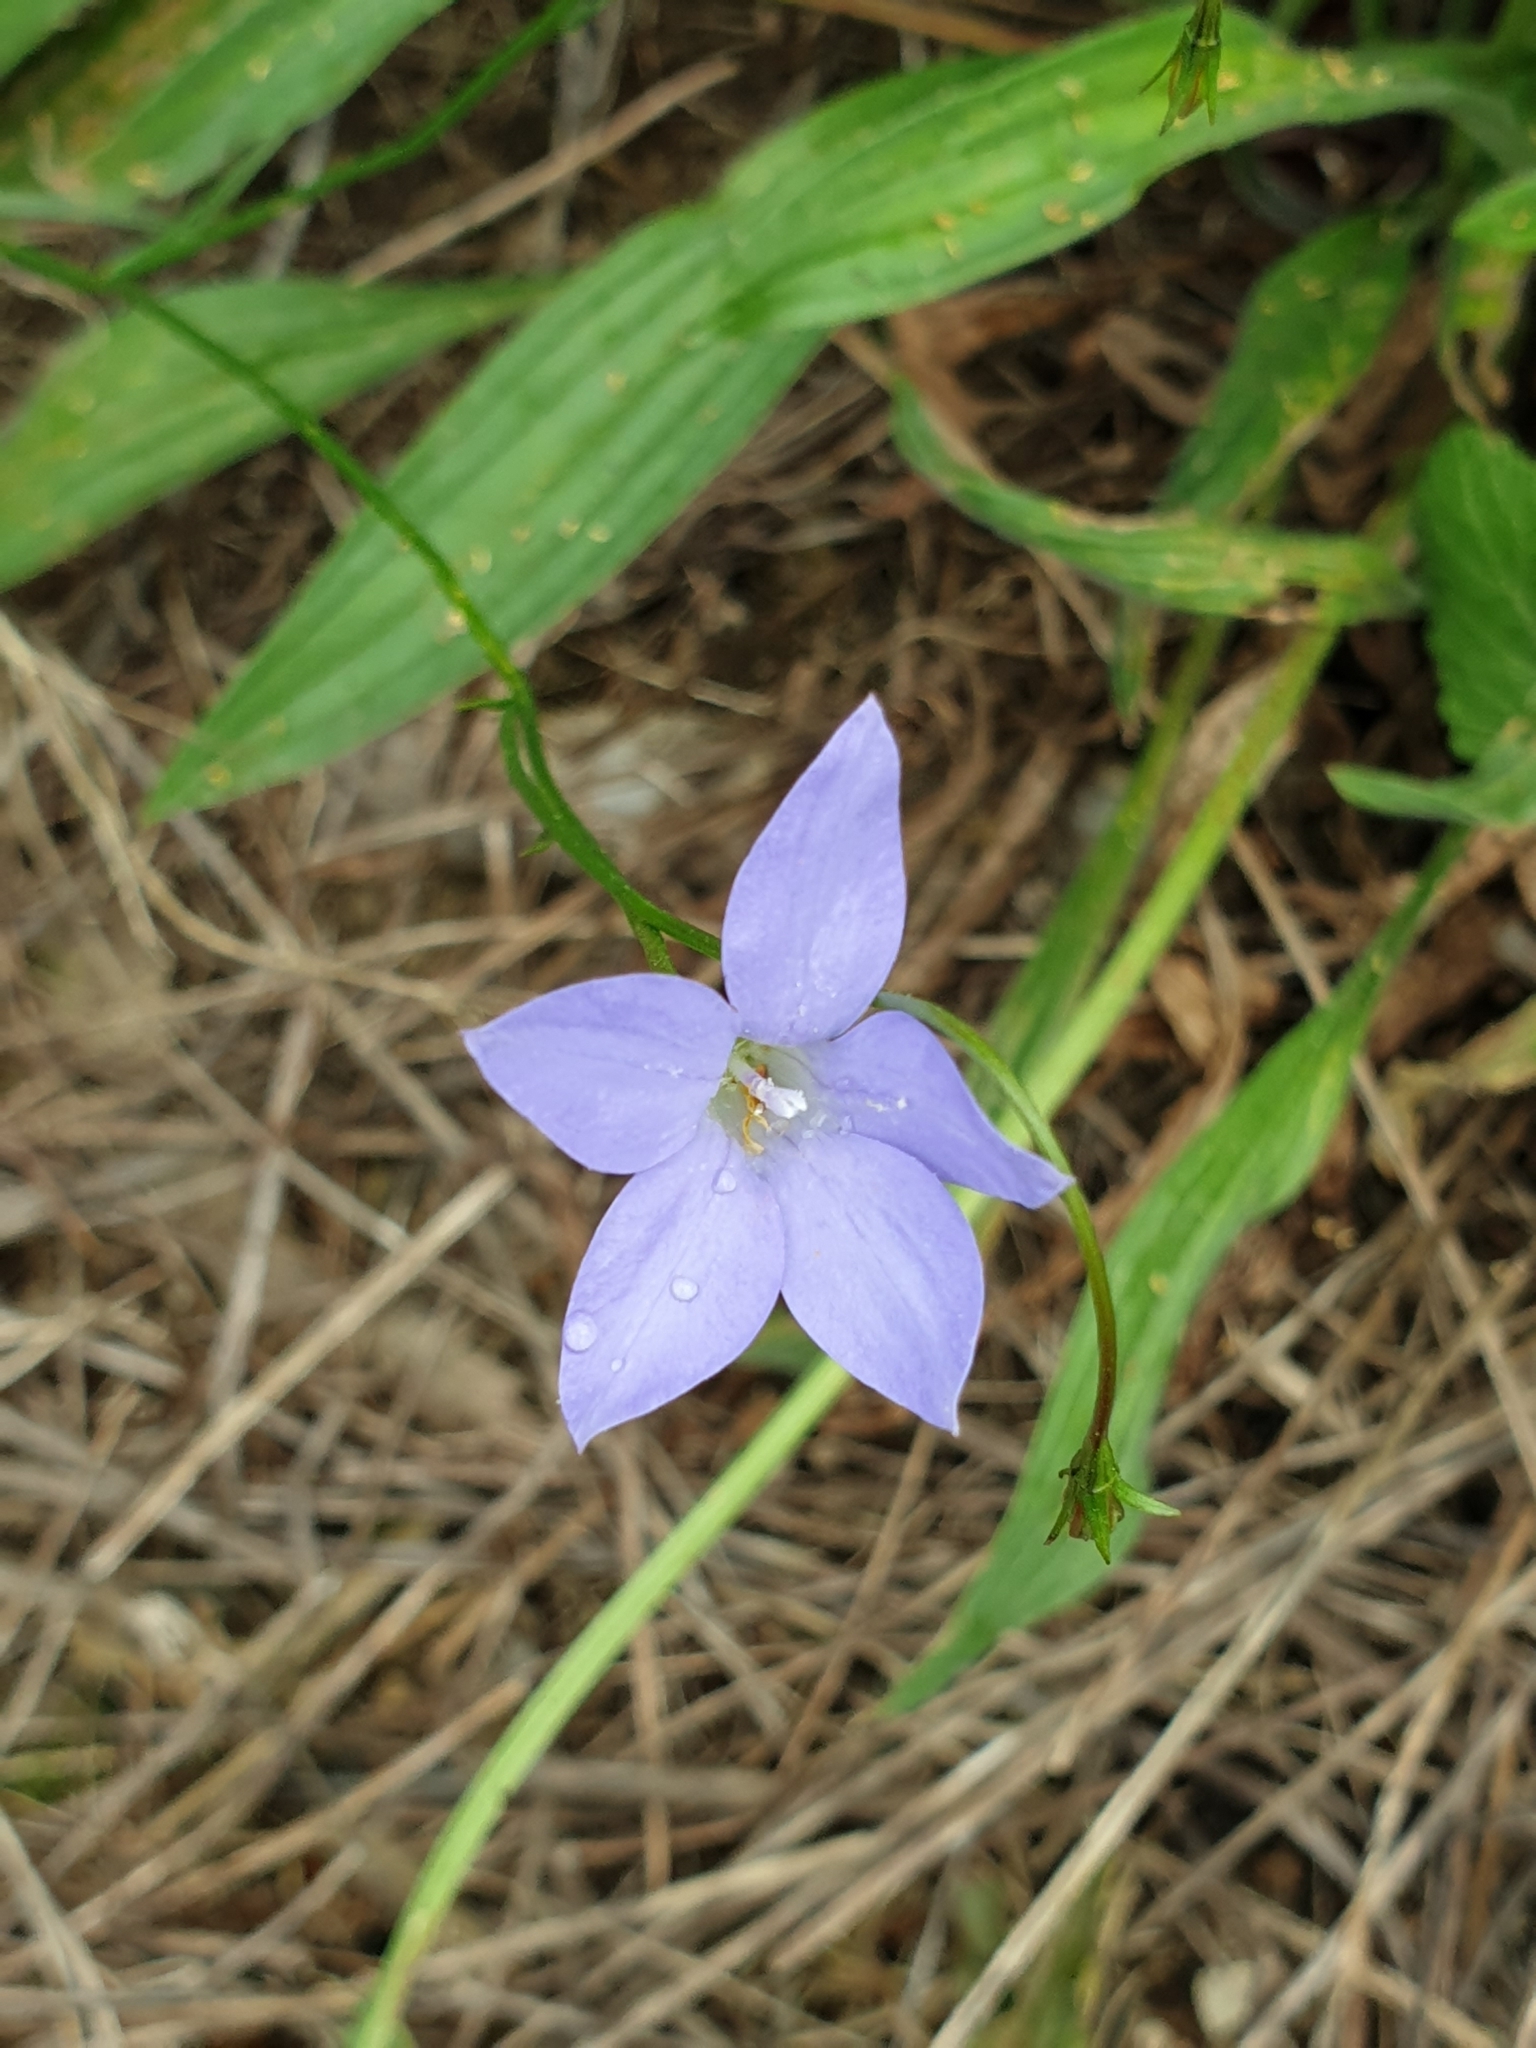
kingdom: Plantae
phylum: Tracheophyta
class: Magnoliopsida
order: Asterales
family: Campanulaceae
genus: Wahlenbergia
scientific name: Wahlenbergia
